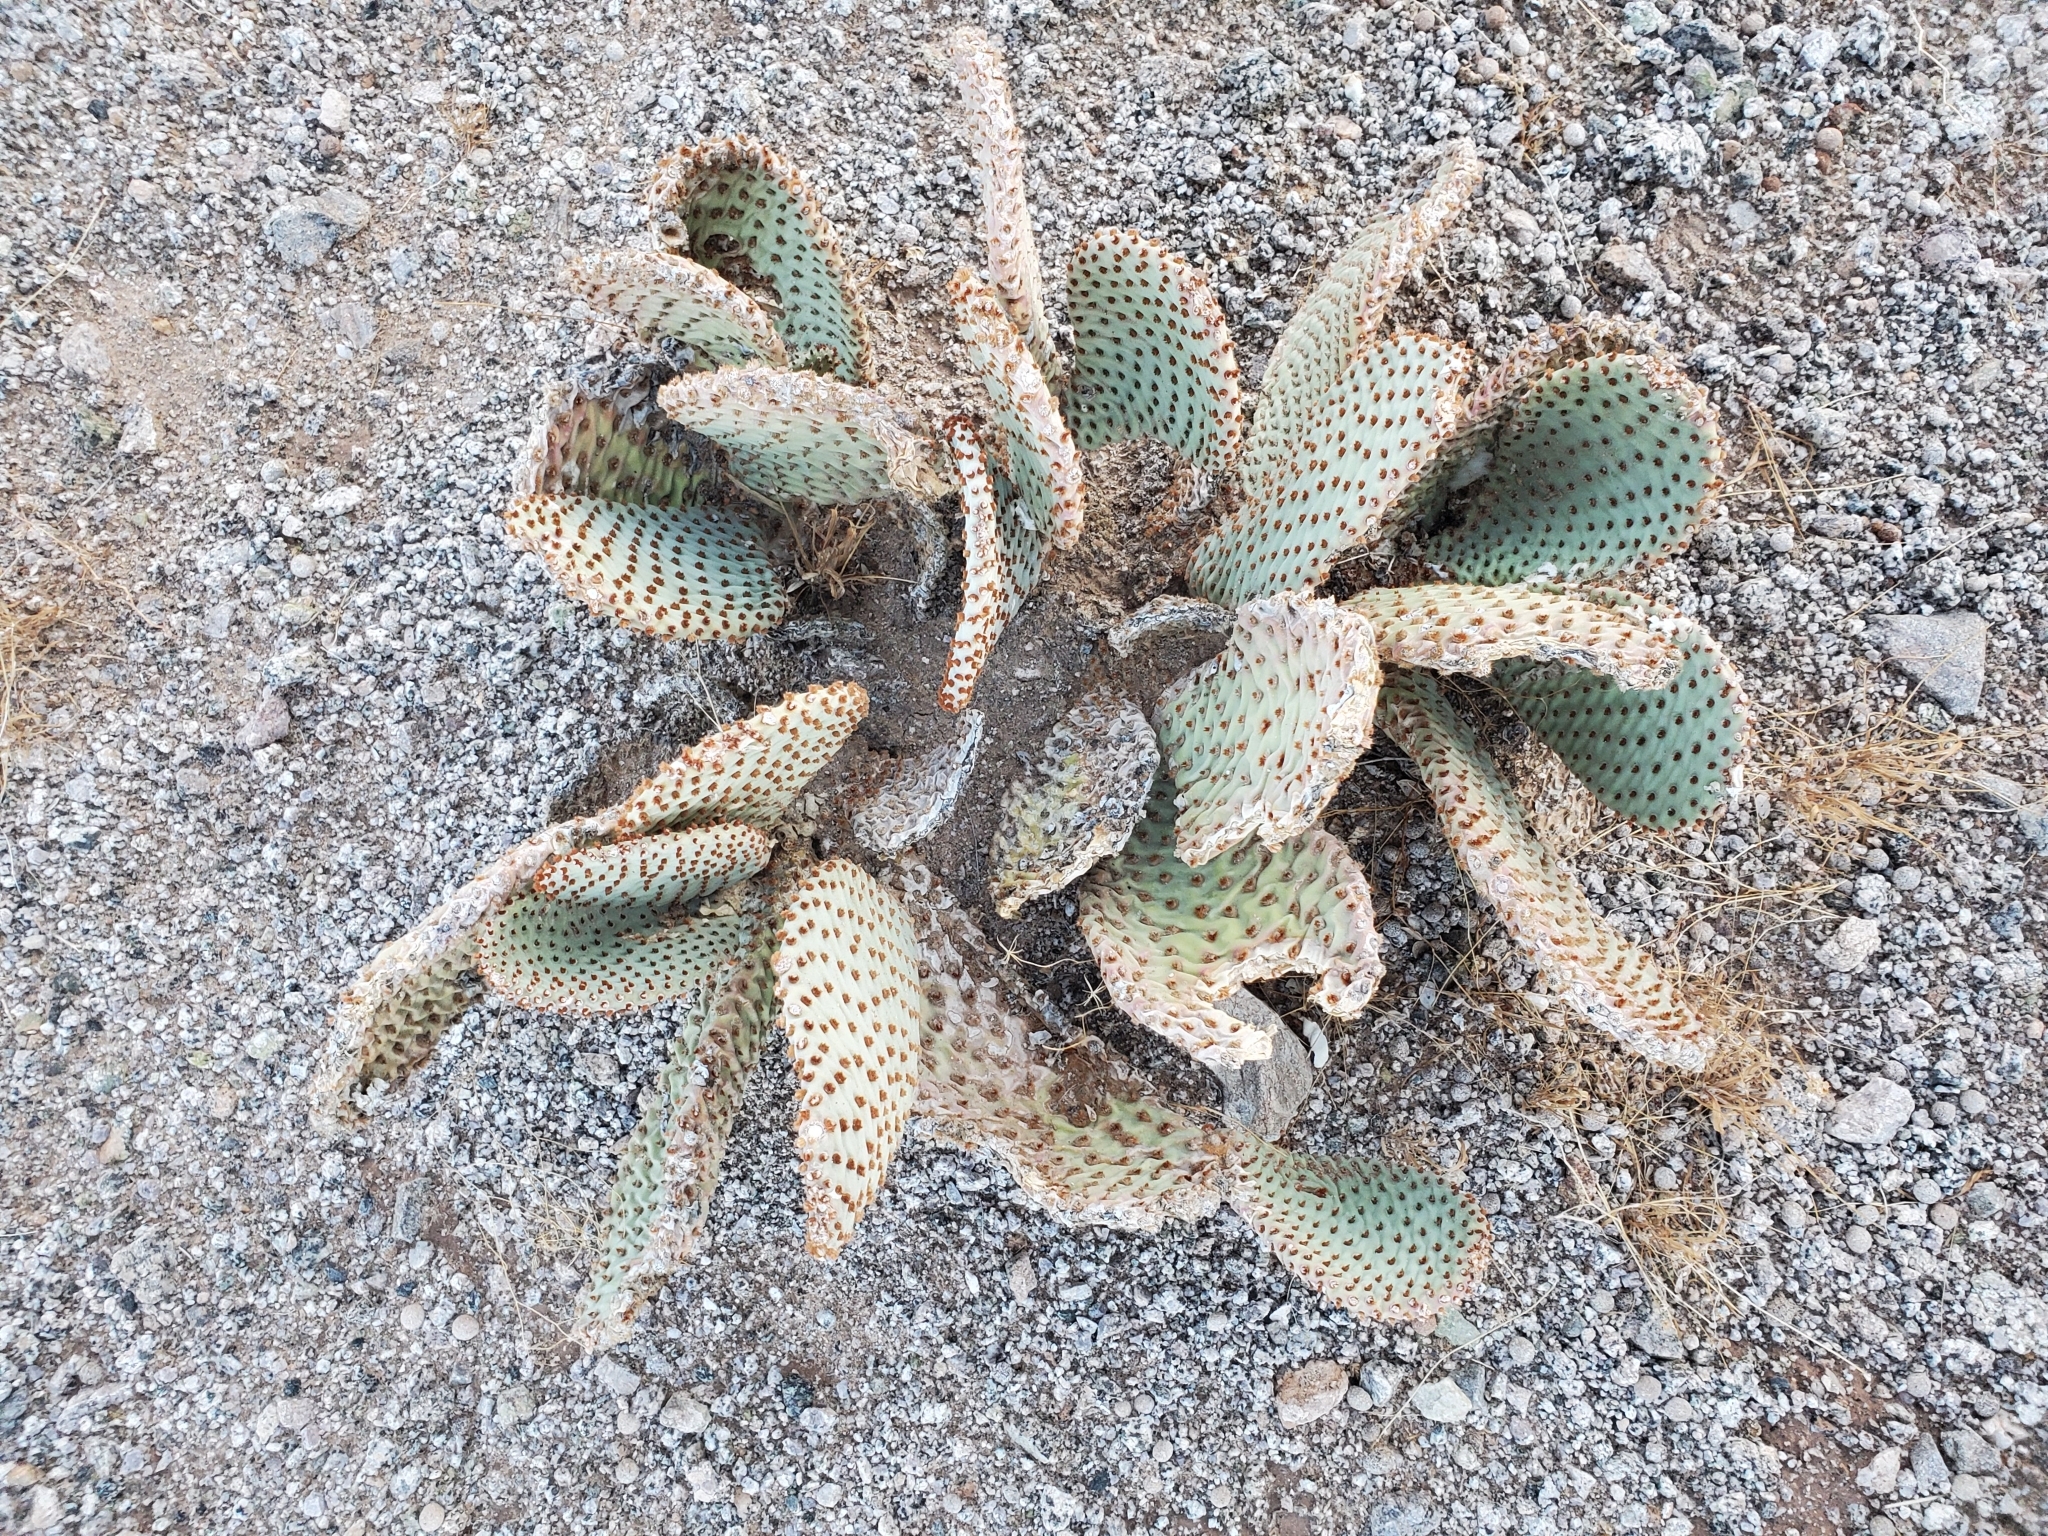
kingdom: Plantae
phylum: Tracheophyta
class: Magnoliopsida
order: Caryophyllales
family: Cactaceae
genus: Opuntia
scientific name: Opuntia basilaris
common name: Beavertail prickly-pear
